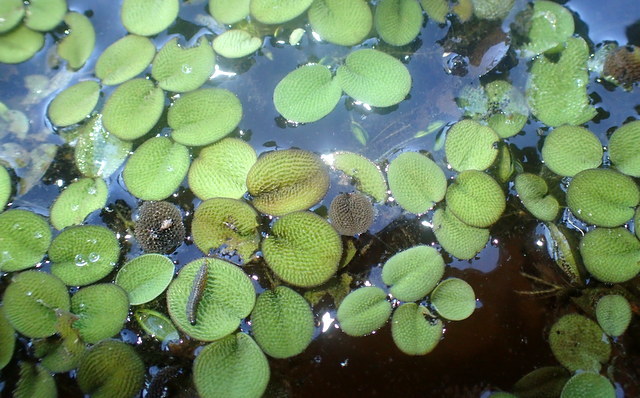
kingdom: Plantae
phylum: Tracheophyta
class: Polypodiopsida
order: Salviniales
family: Salviniaceae
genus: Salvinia
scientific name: Salvinia minima
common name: Water spangles
